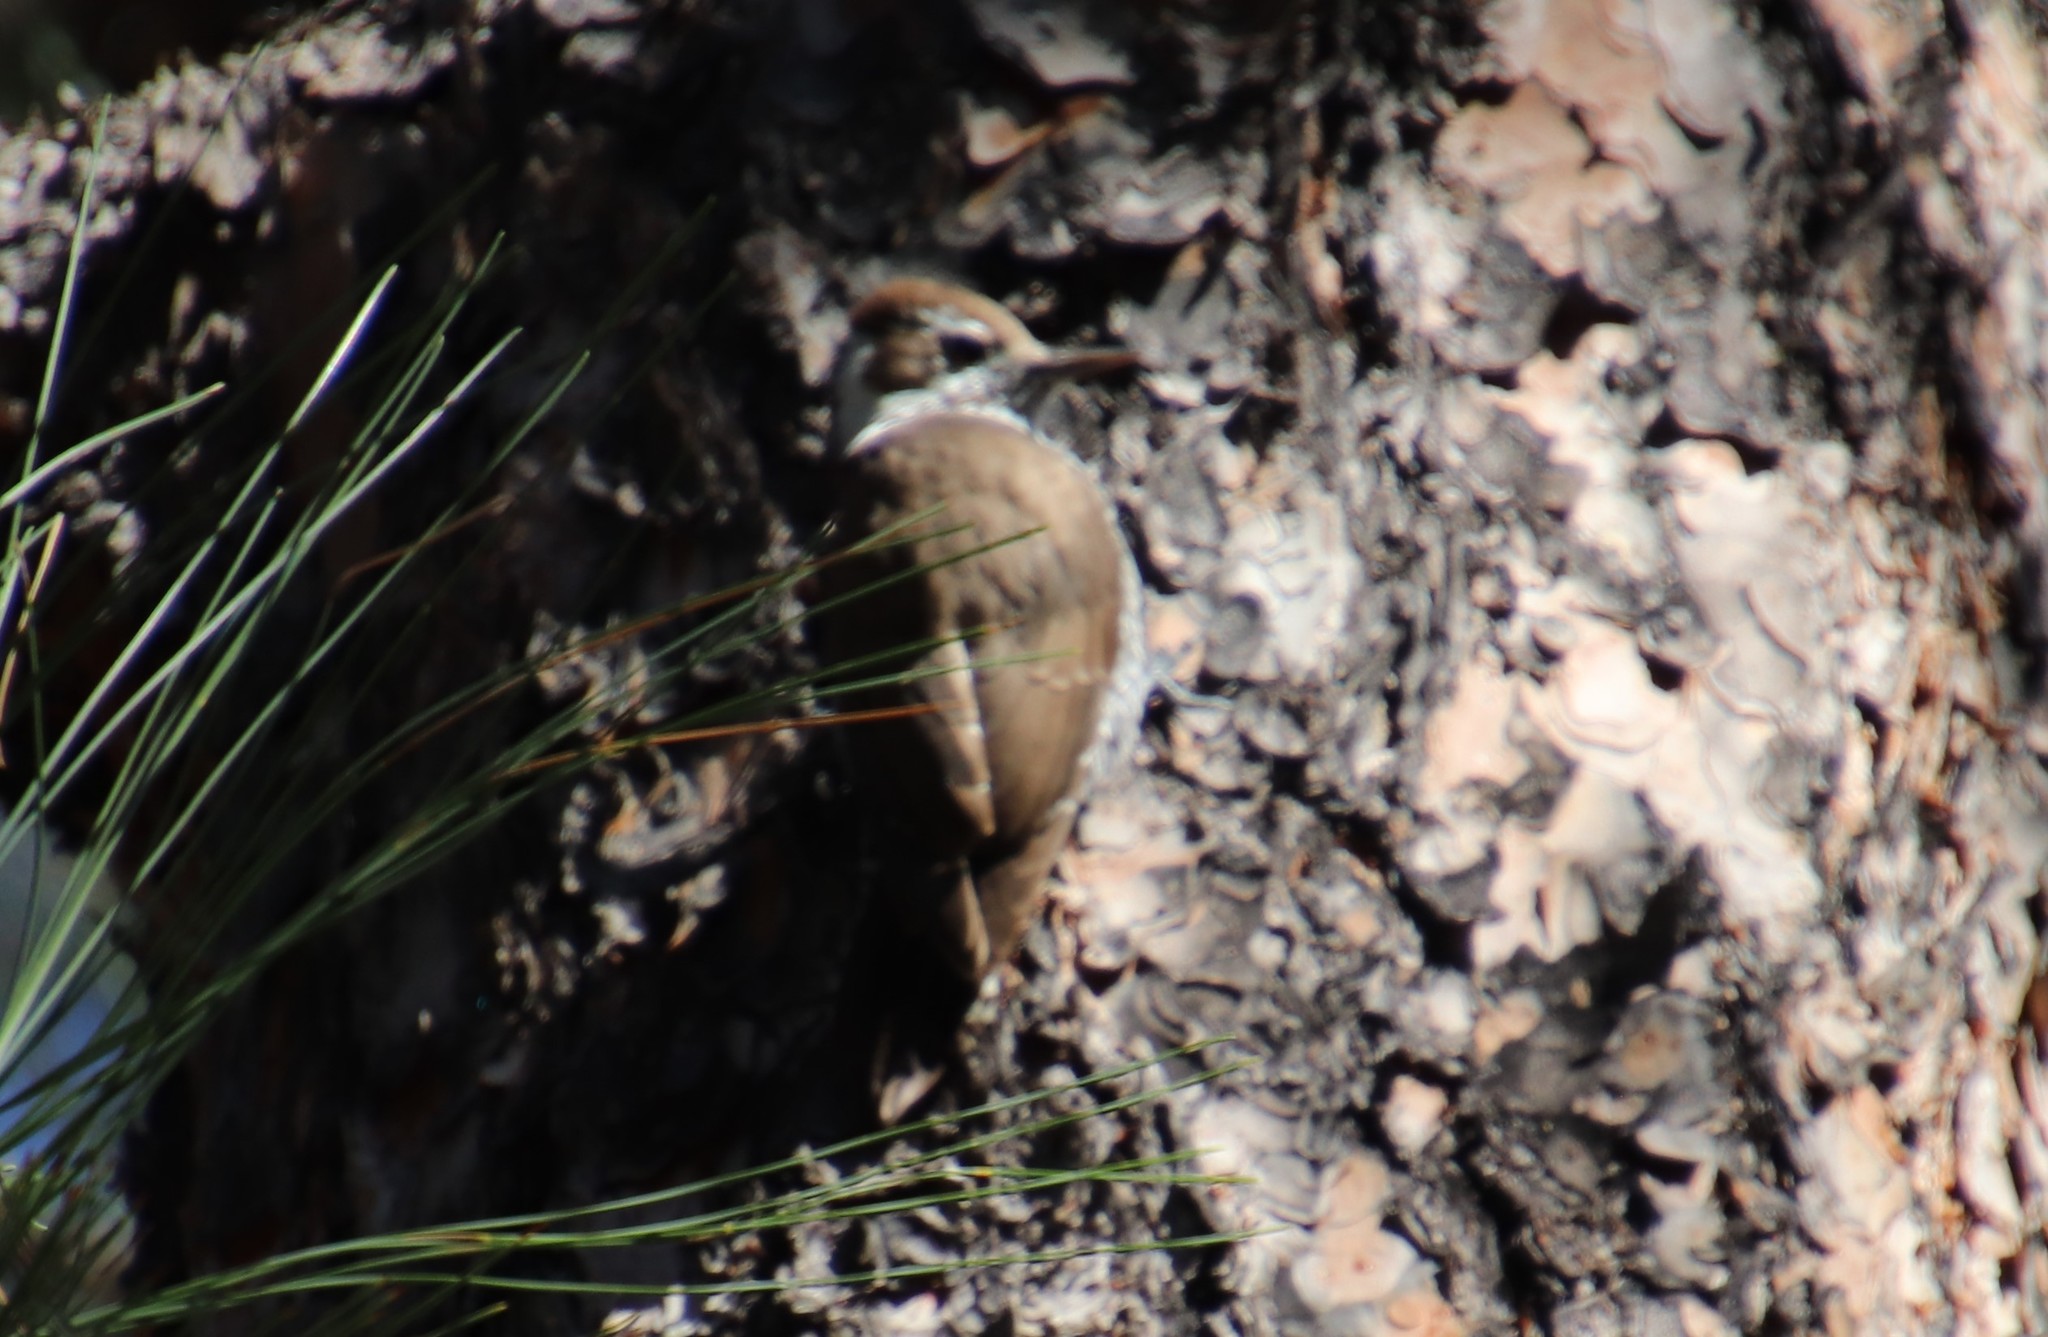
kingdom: Animalia
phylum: Chordata
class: Aves
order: Piciformes
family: Picidae
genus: Leuconotopicus
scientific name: Leuconotopicus arizonae
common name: Arizona woodpecker
